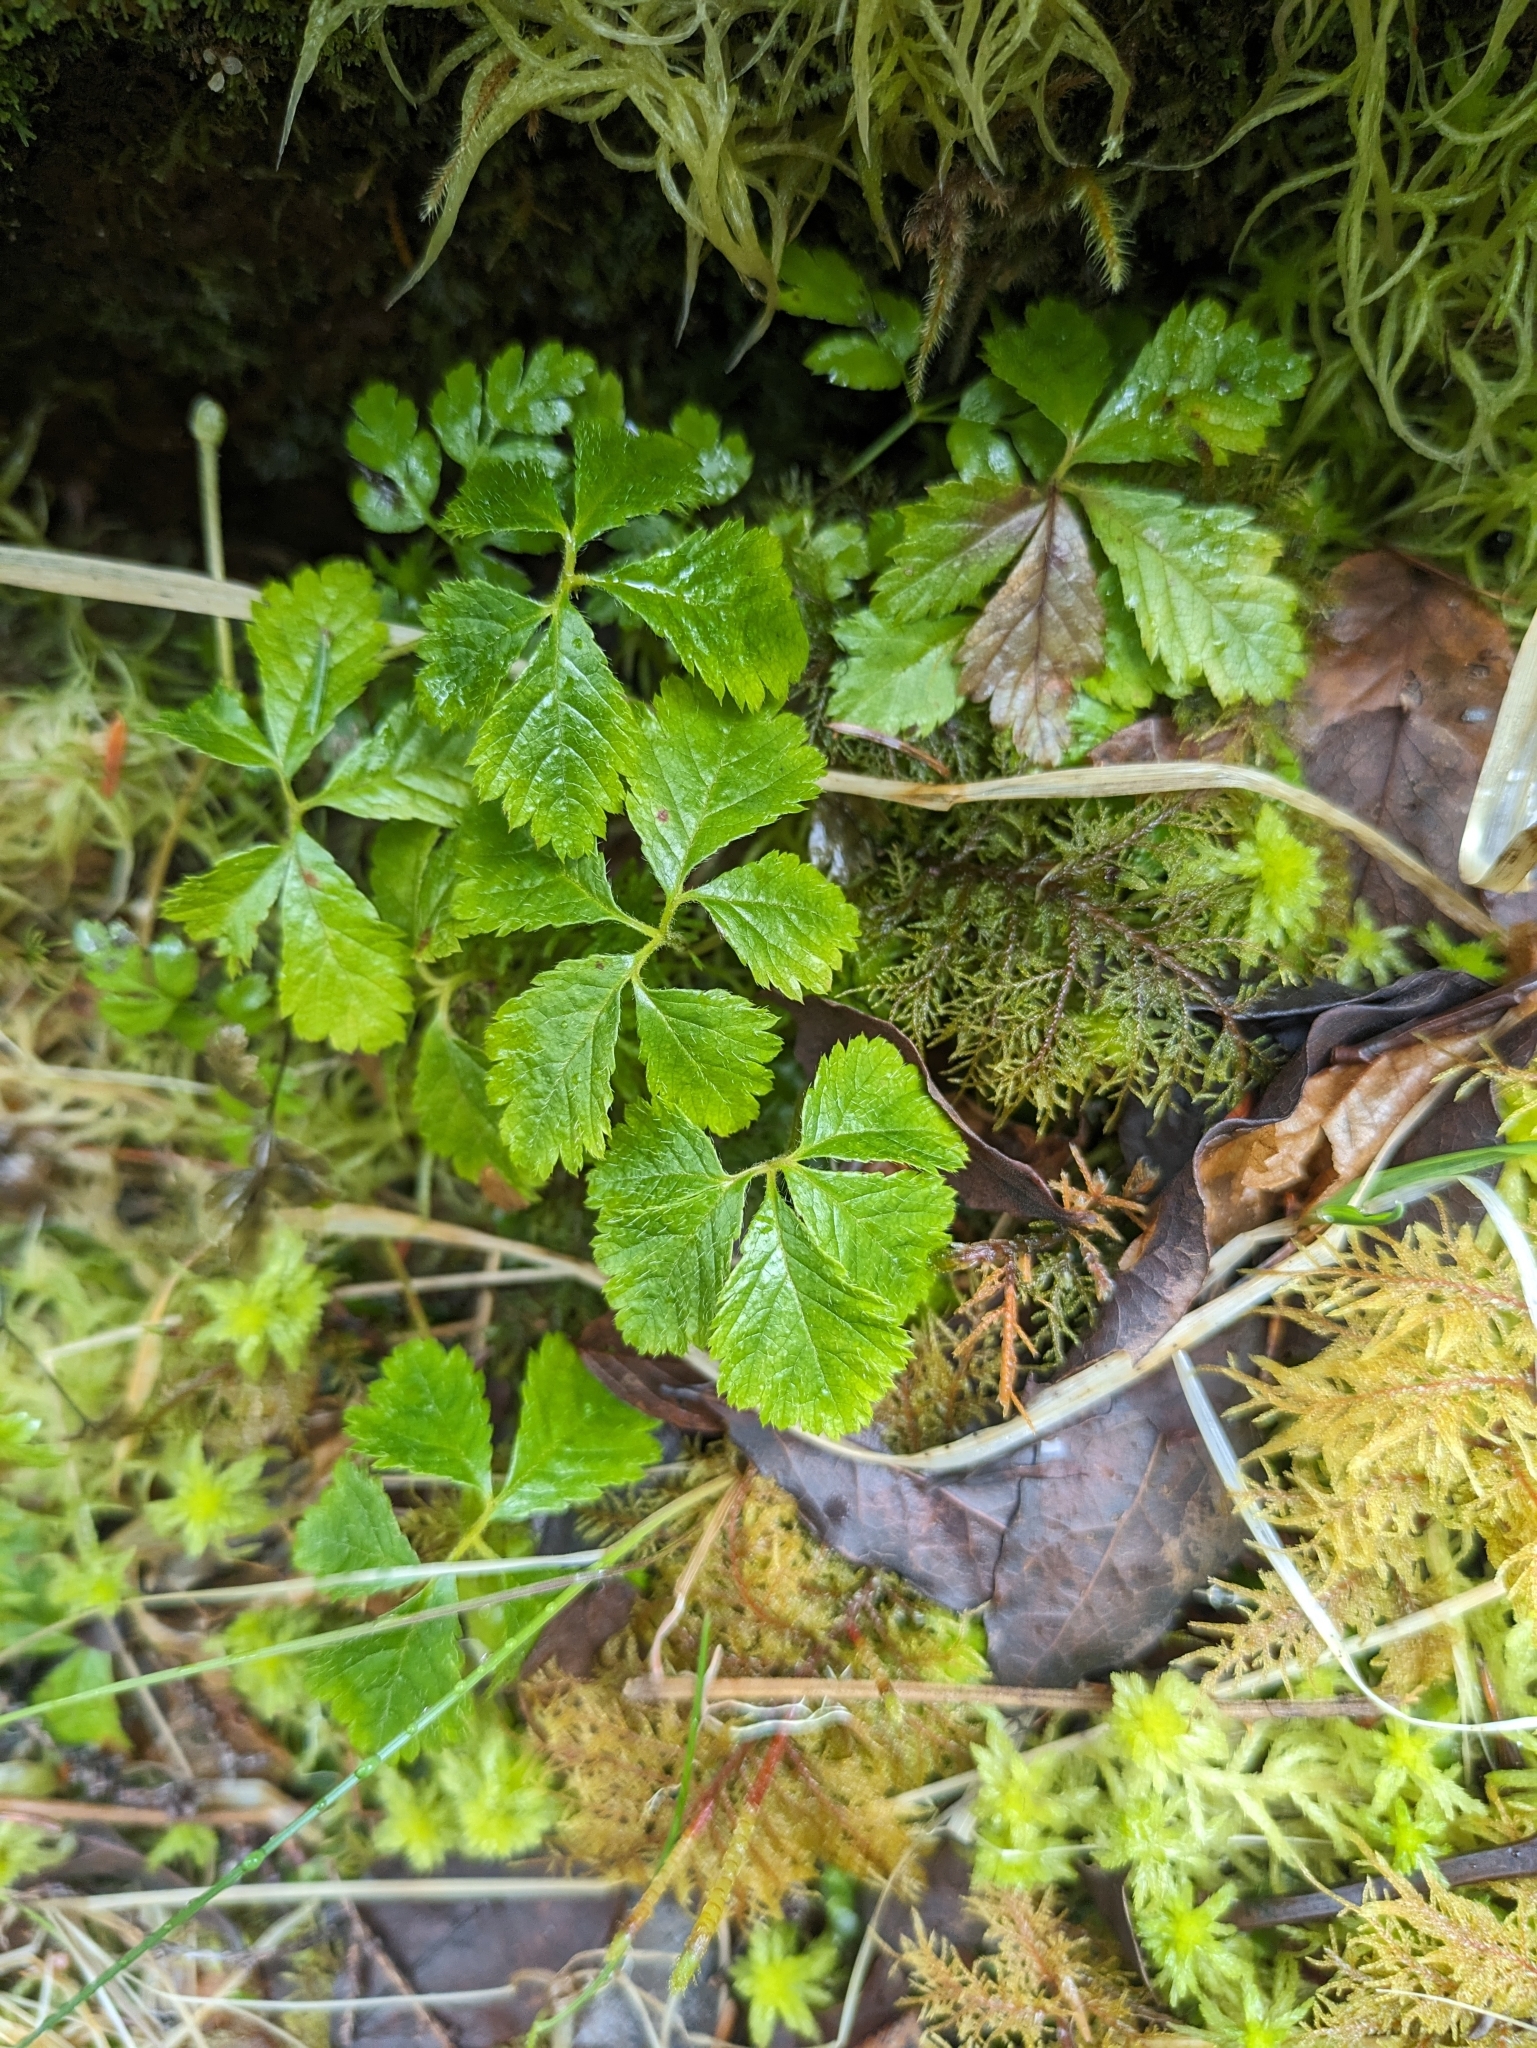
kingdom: Plantae
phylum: Tracheophyta
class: Magnoliopsida
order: Rosales
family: Rosaceae
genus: Rubus
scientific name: Rubus pedatus
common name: Creeping raspberry
